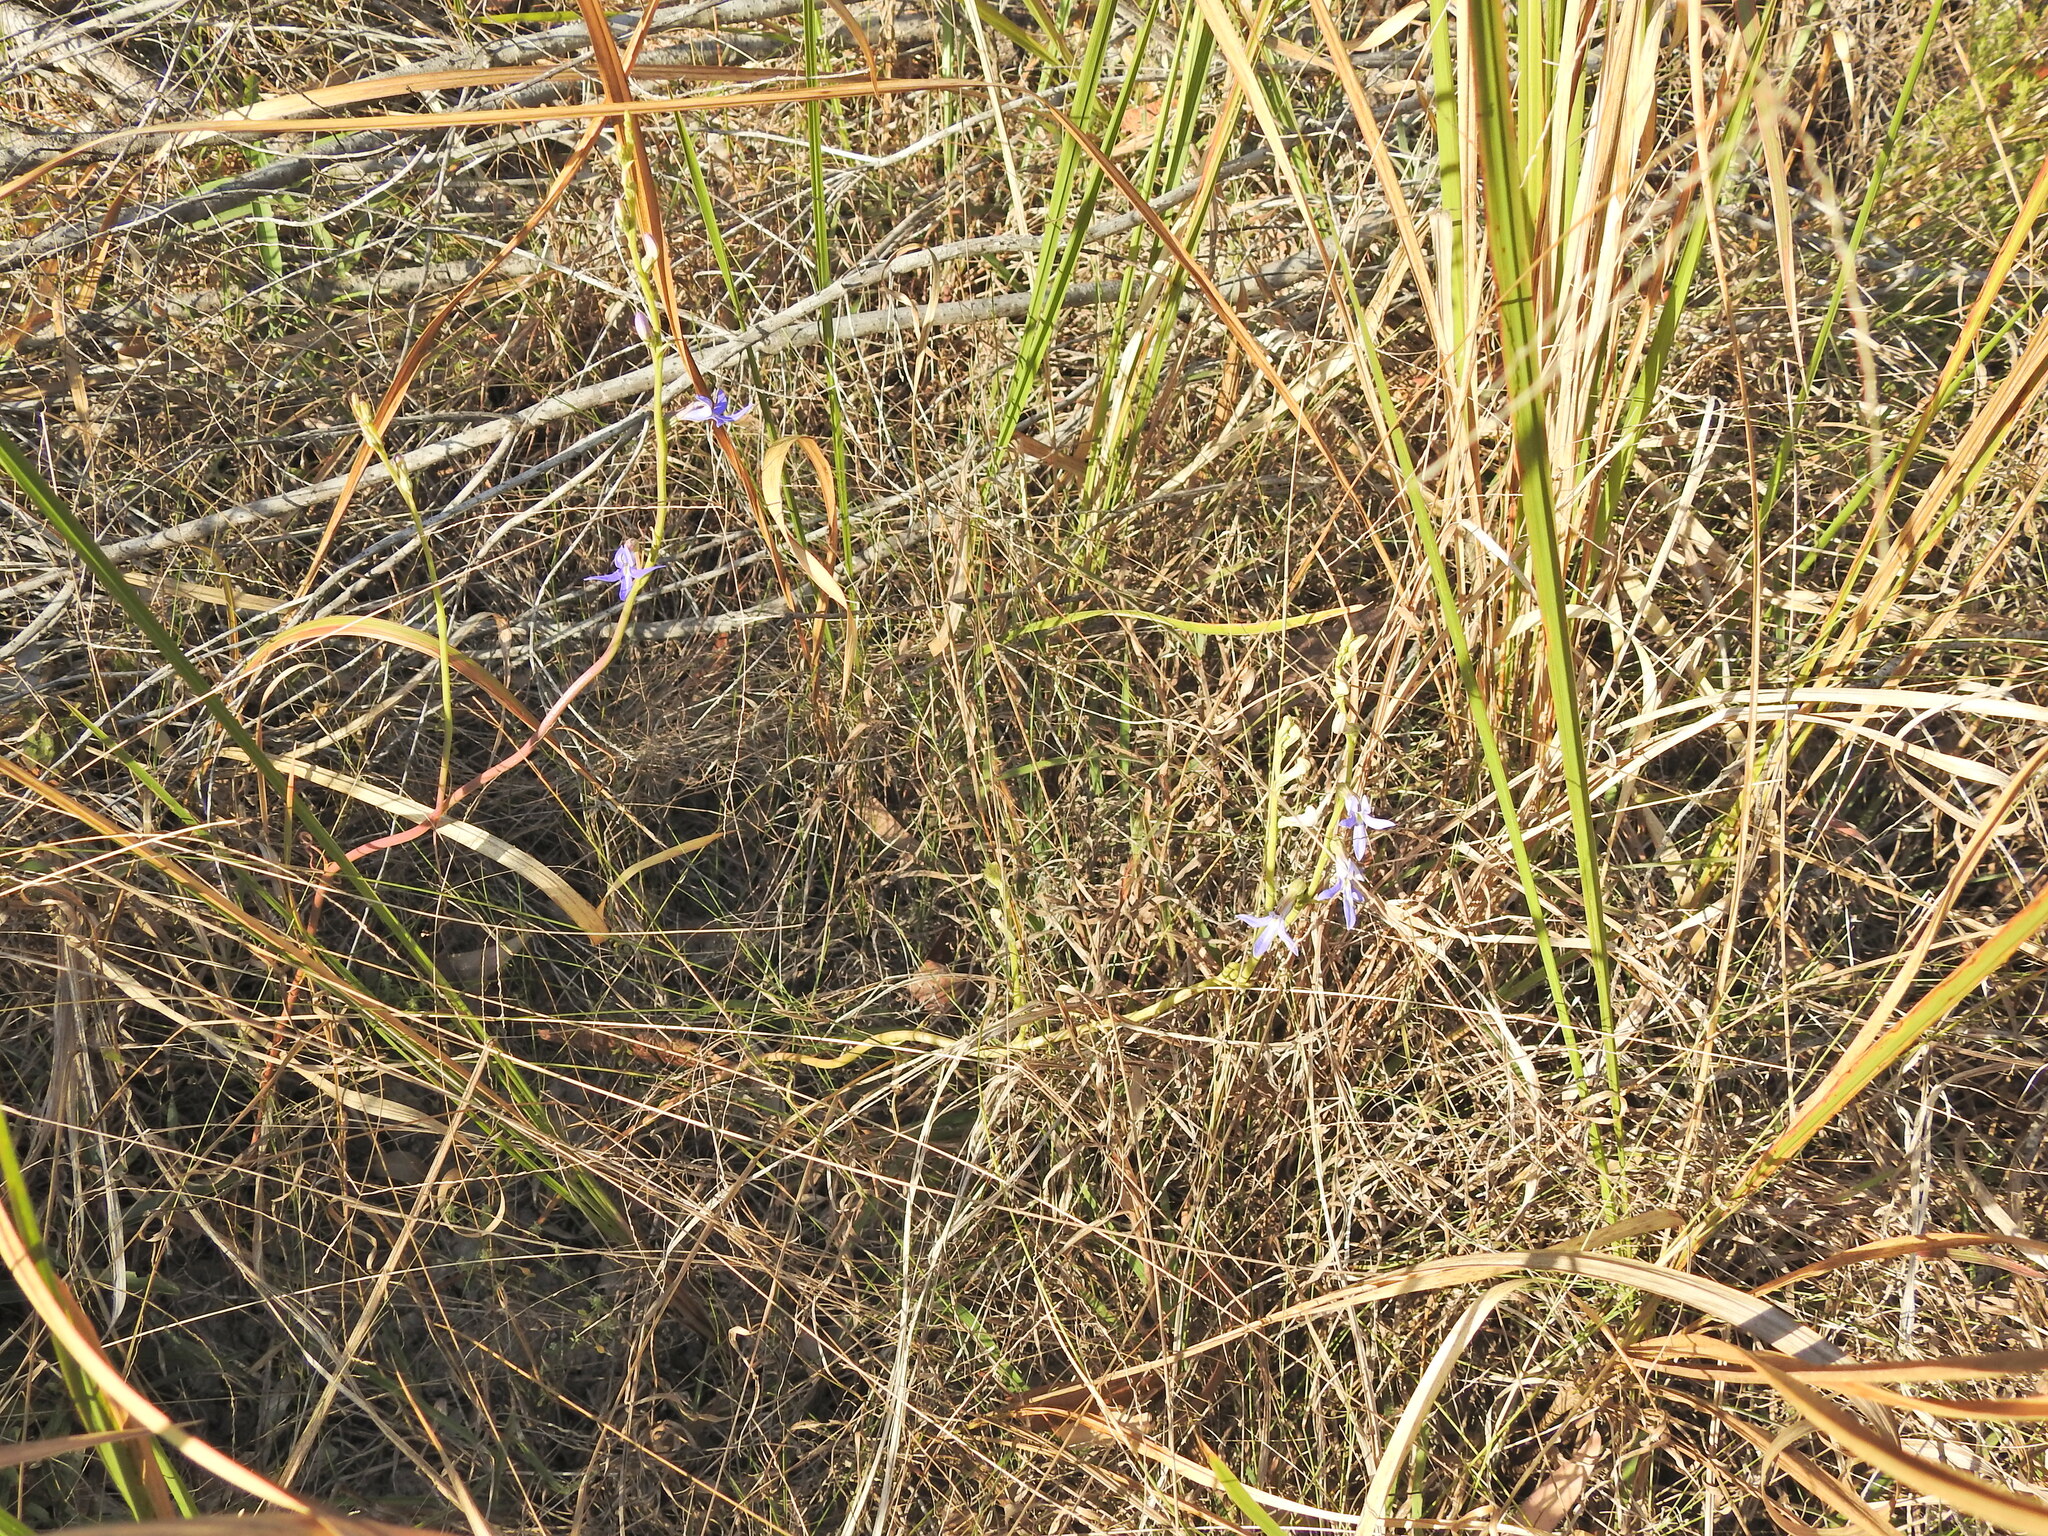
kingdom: Plantae
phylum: Tracheophyta
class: Magnoliopsida
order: Asterales
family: Campanulaceae
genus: Lobelia
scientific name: Lobelia gibbosa
